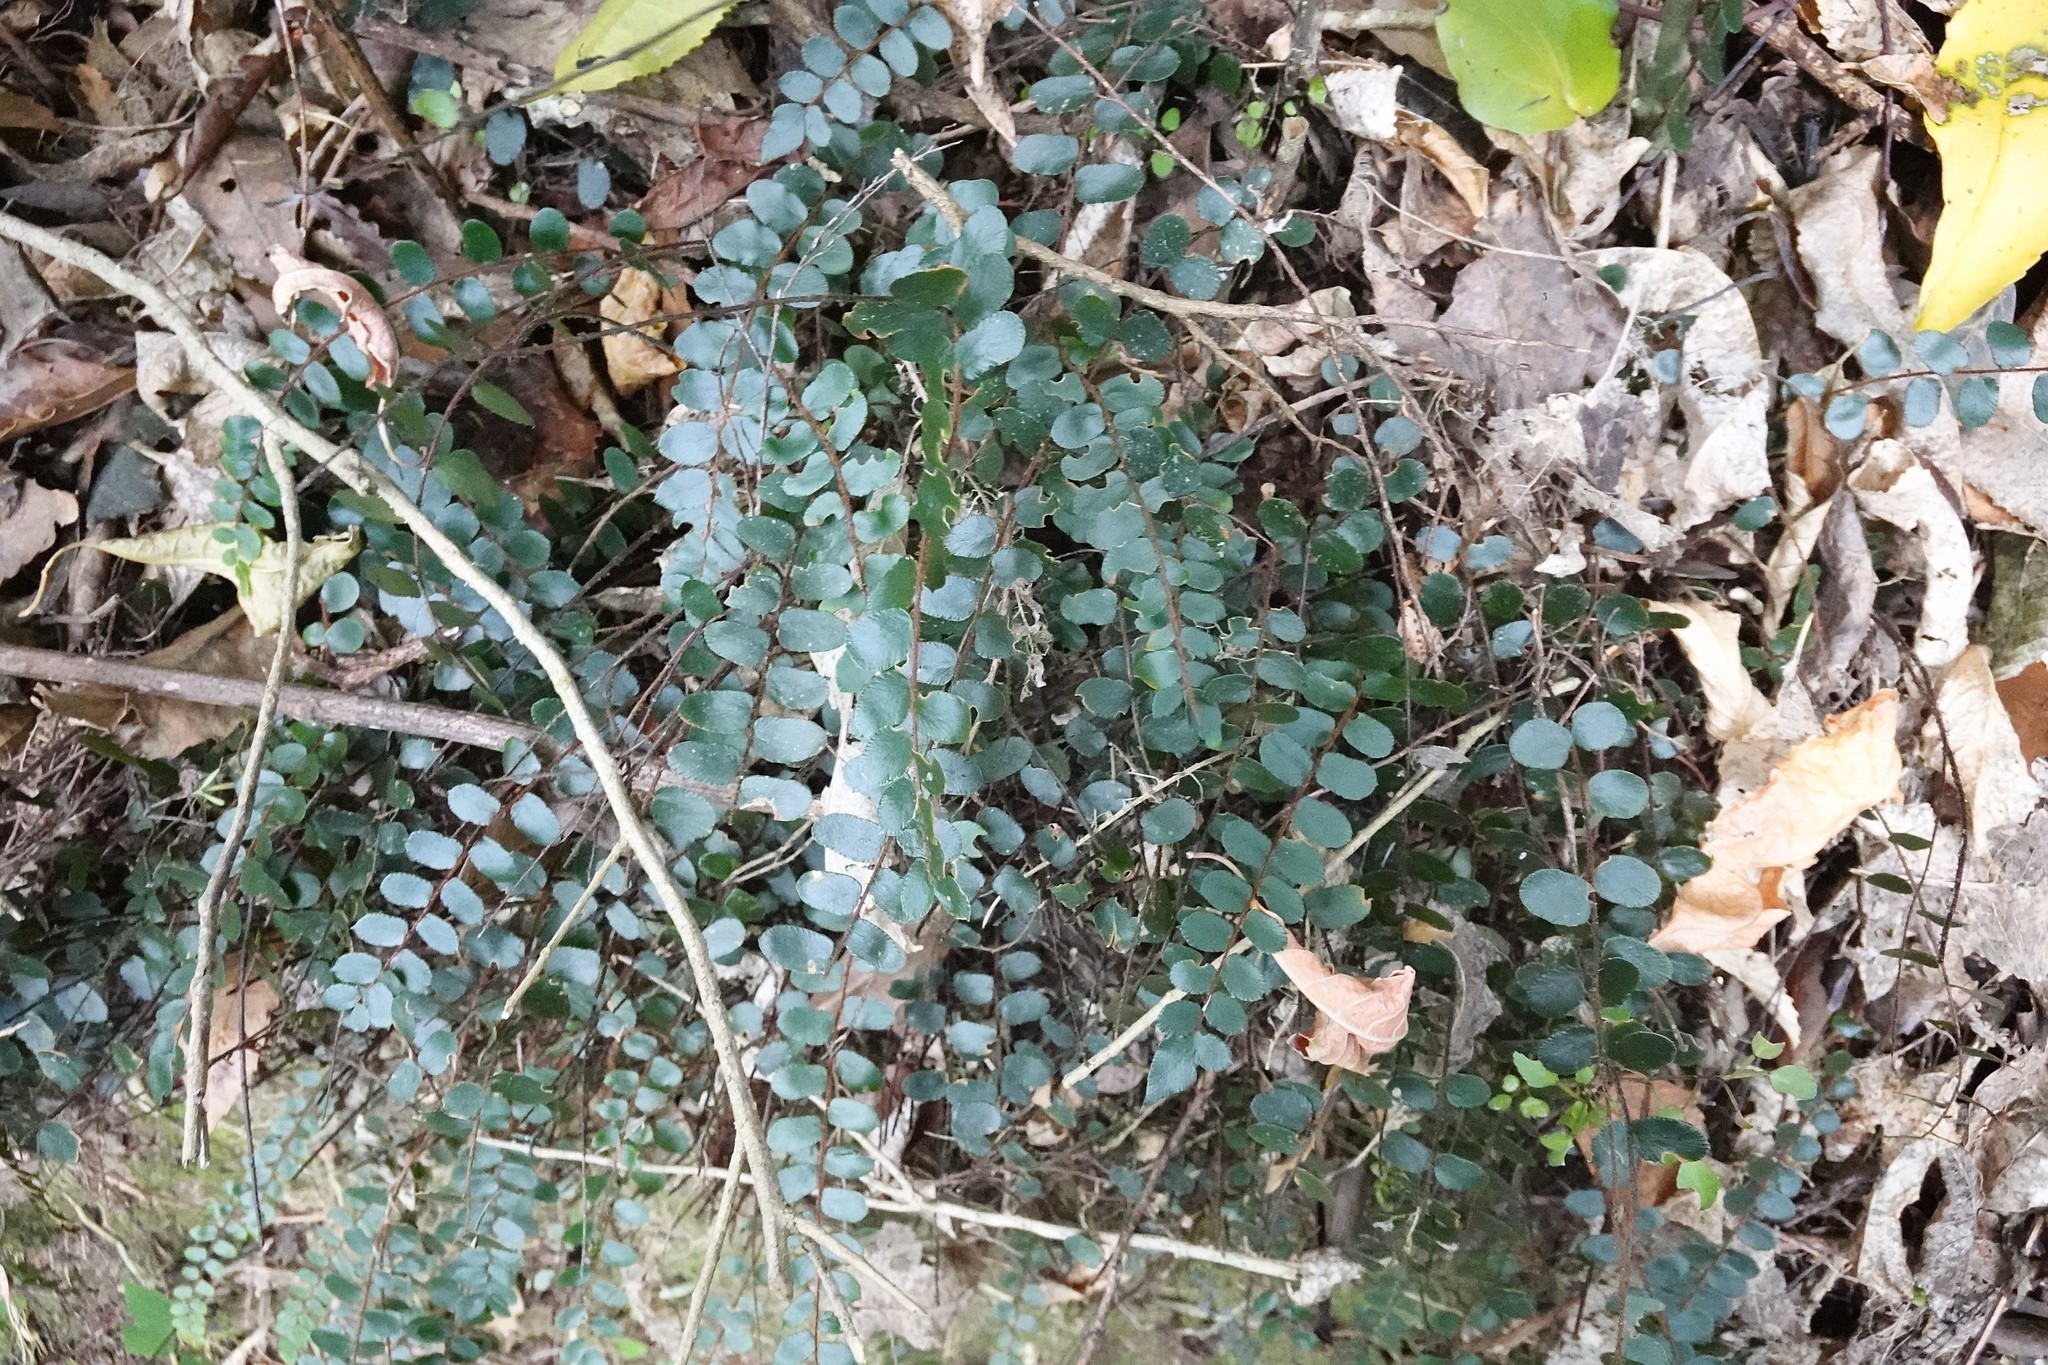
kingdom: Plantae
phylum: Tracheophyta
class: Polypodiopsida
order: Polypodiales
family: Pteridaceae
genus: Pellaea
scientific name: Pellaea rotundifolia
